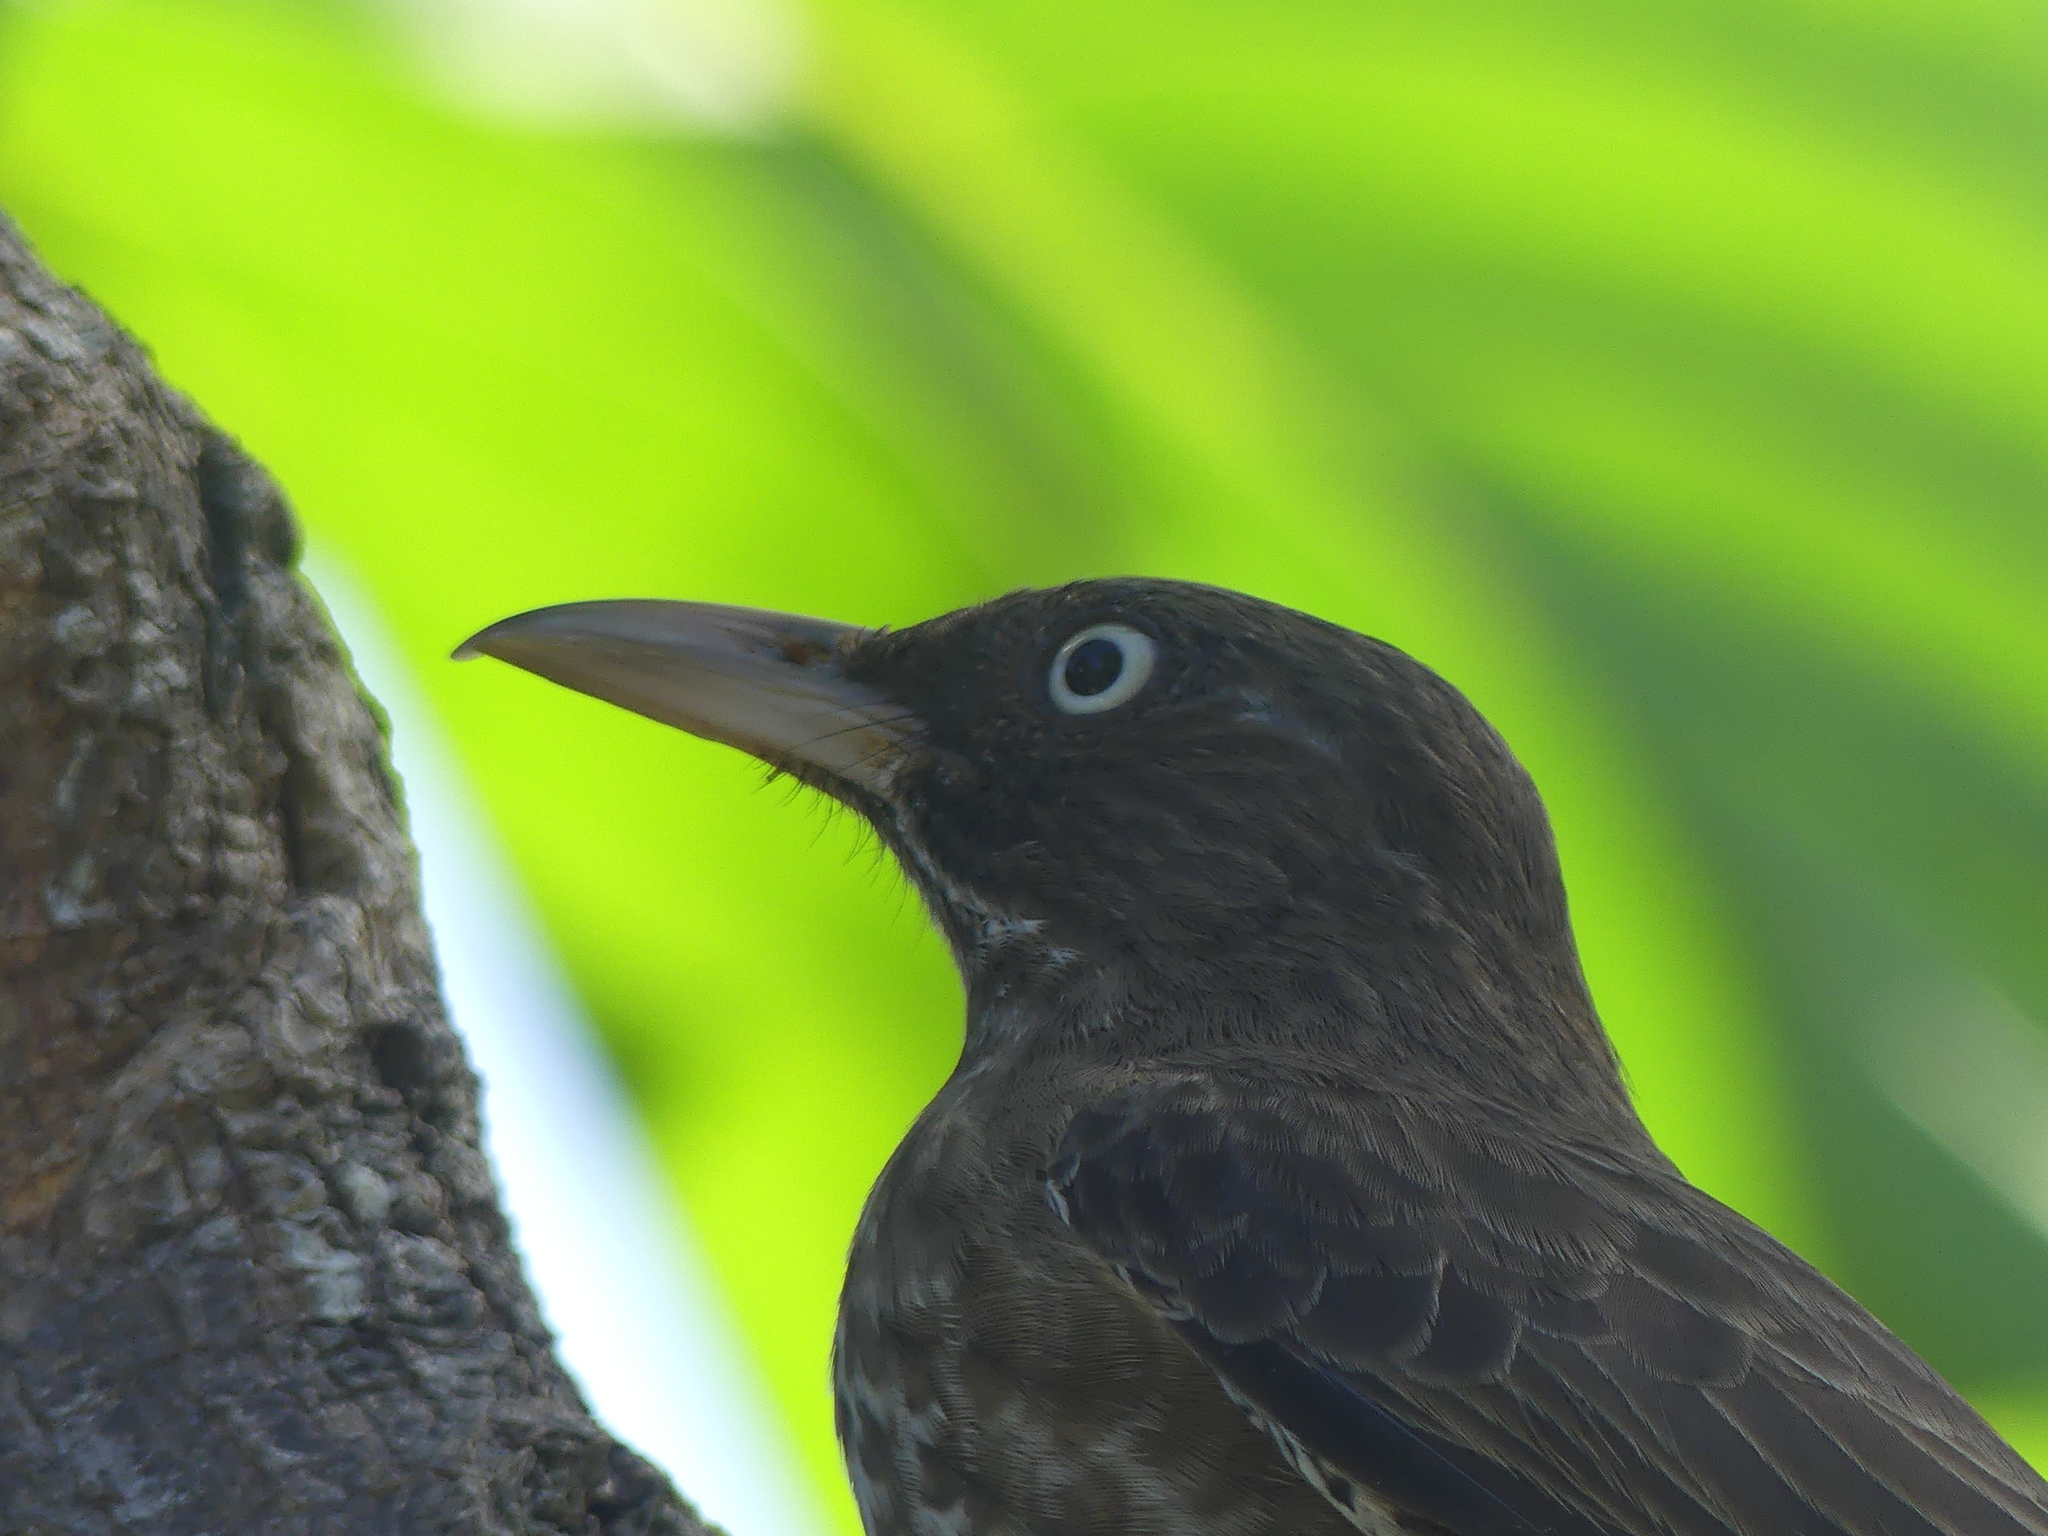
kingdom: Animalia
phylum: Chordata
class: Aves
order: Passeriformes
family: Mimidae
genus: Margarops
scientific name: Margarops fuscatus
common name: Pearly-eyed thrasher
